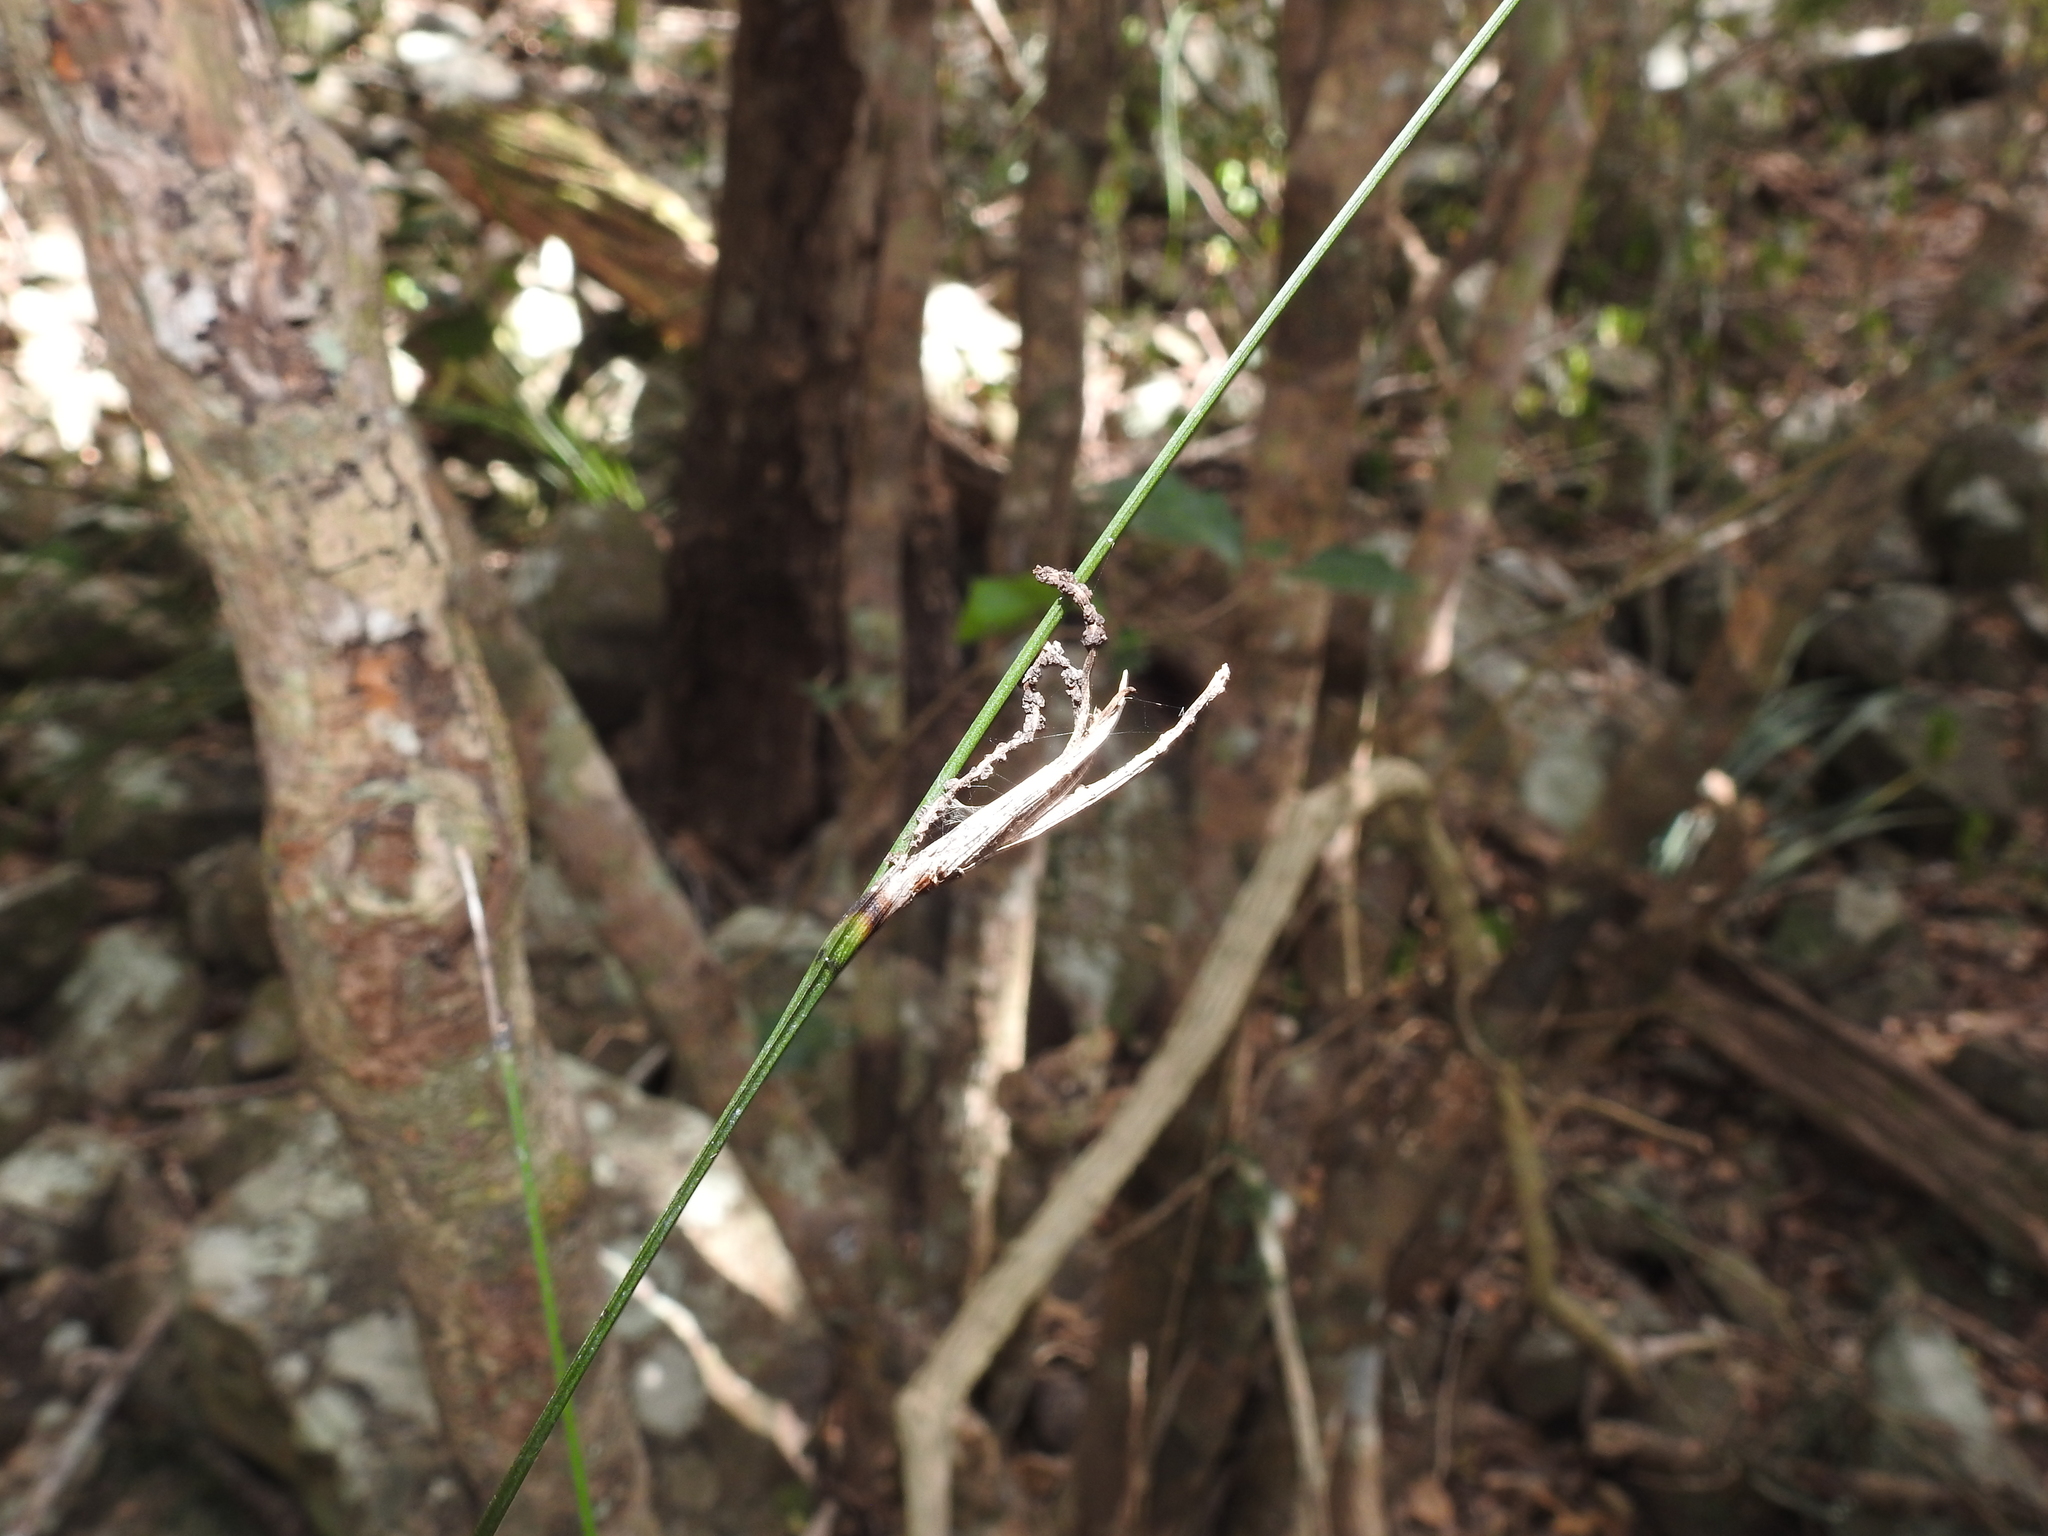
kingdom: Plantae
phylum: Tracheophyta
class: Liliopsida
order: Alismatales
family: Araceae
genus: Gymnostachys
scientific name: Gymnostachys anceps
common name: Settler's-flax
